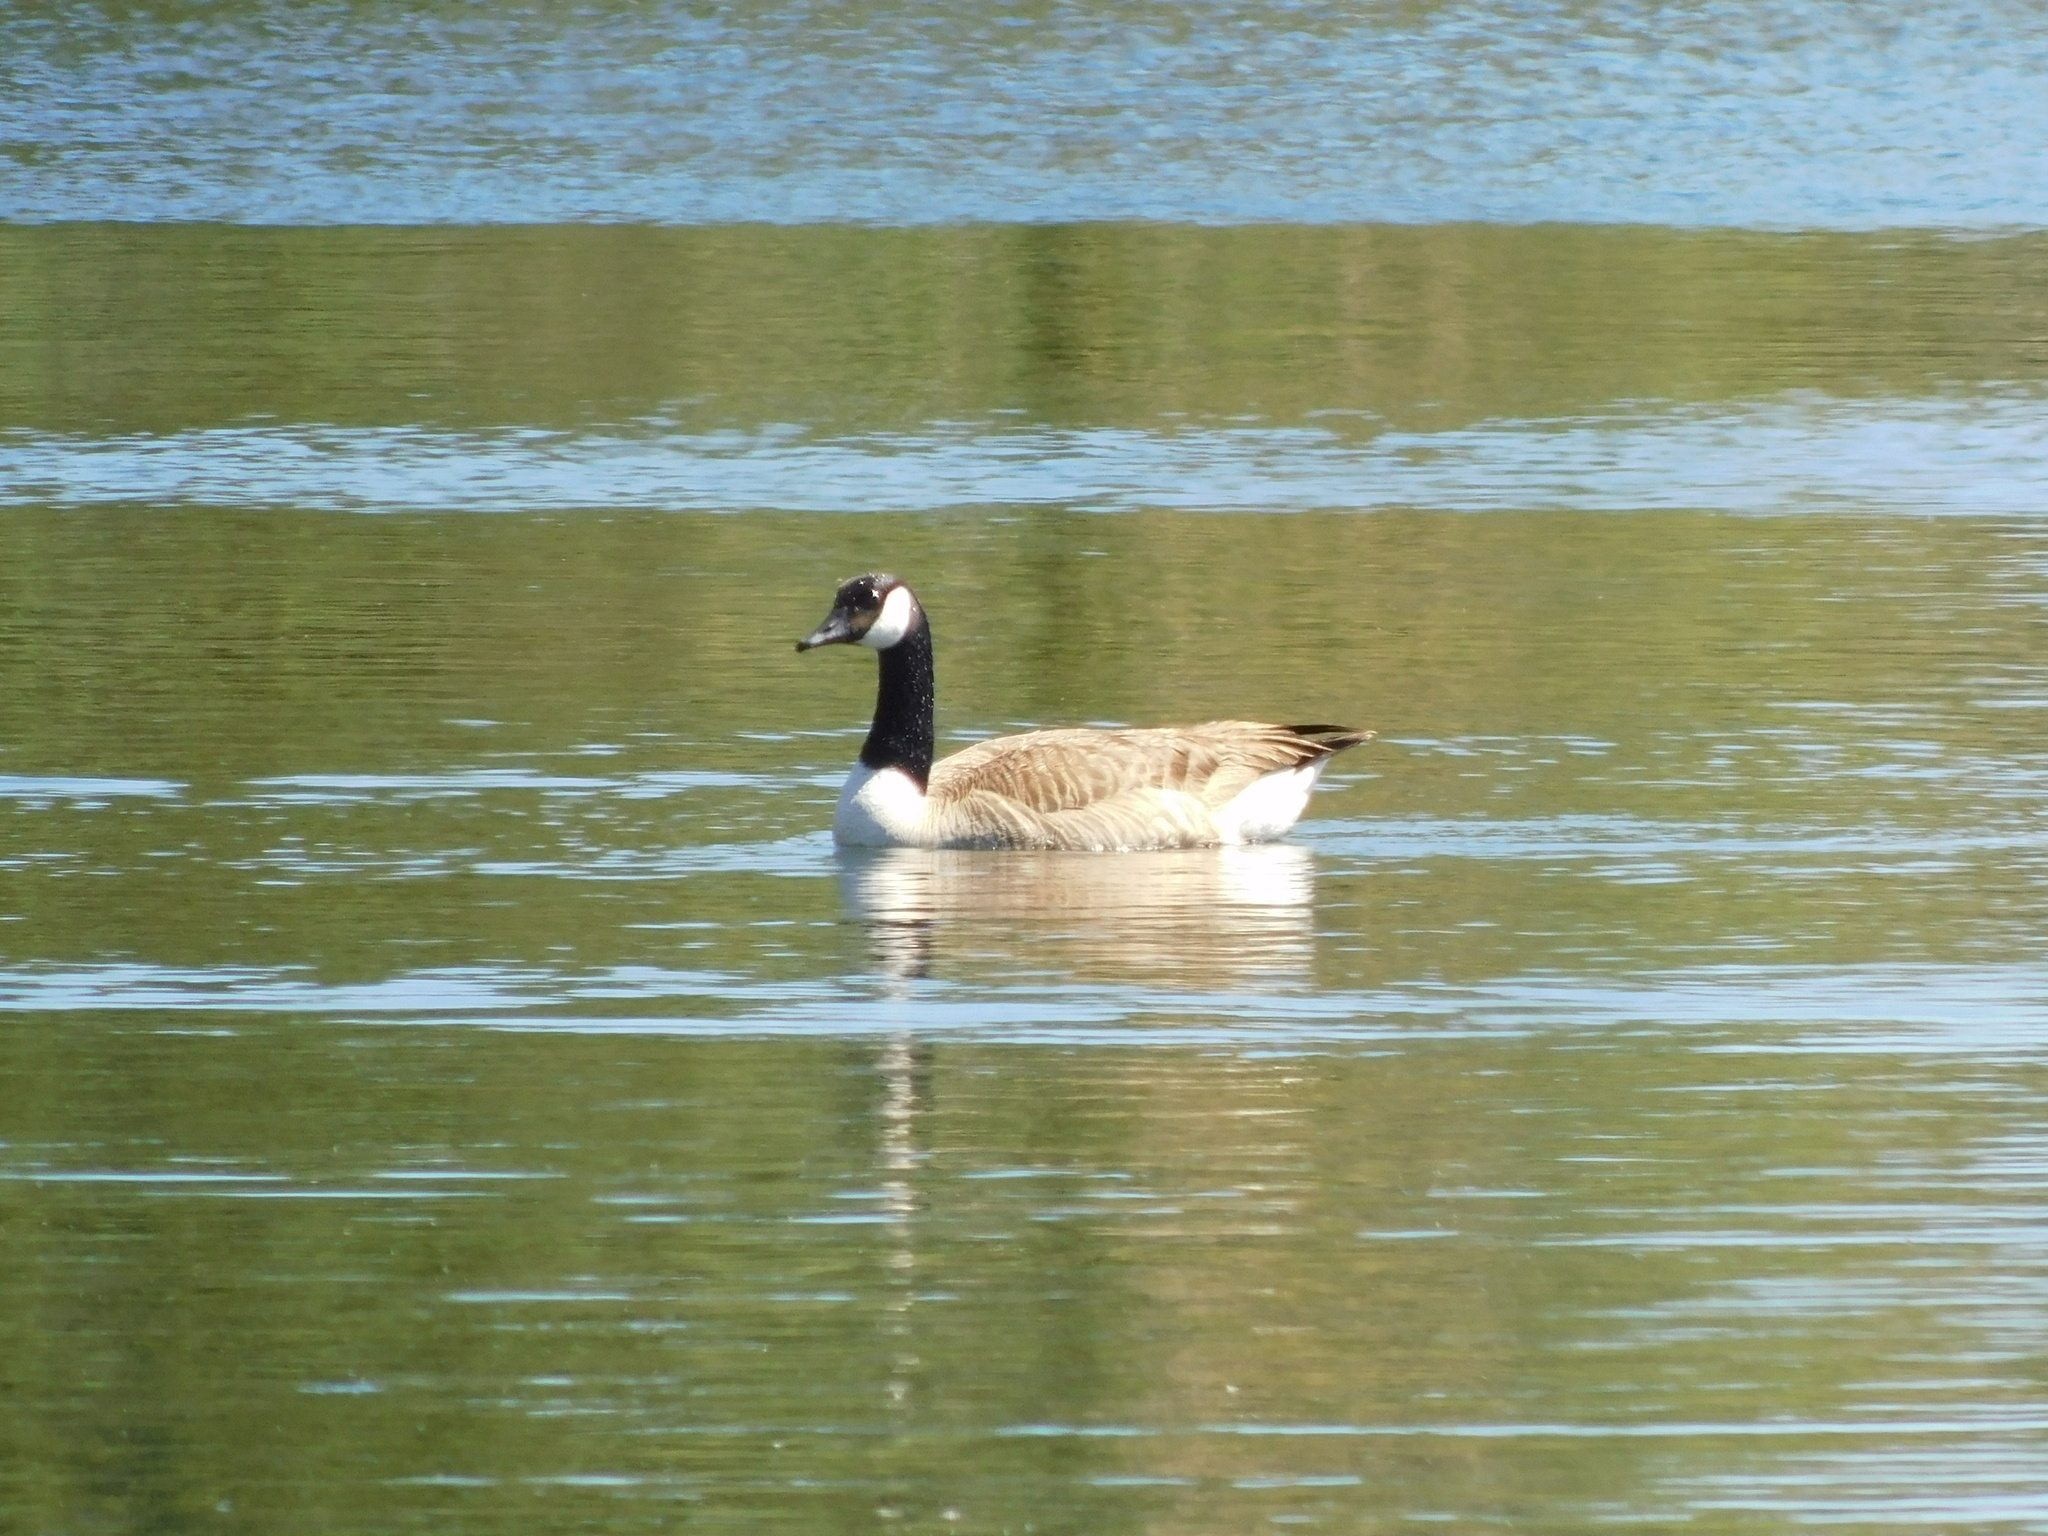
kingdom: Animalia
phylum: Chordata
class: Aves
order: Anseriformes
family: Anatidae
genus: Branta
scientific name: Branta canadensis
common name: Canada goose
